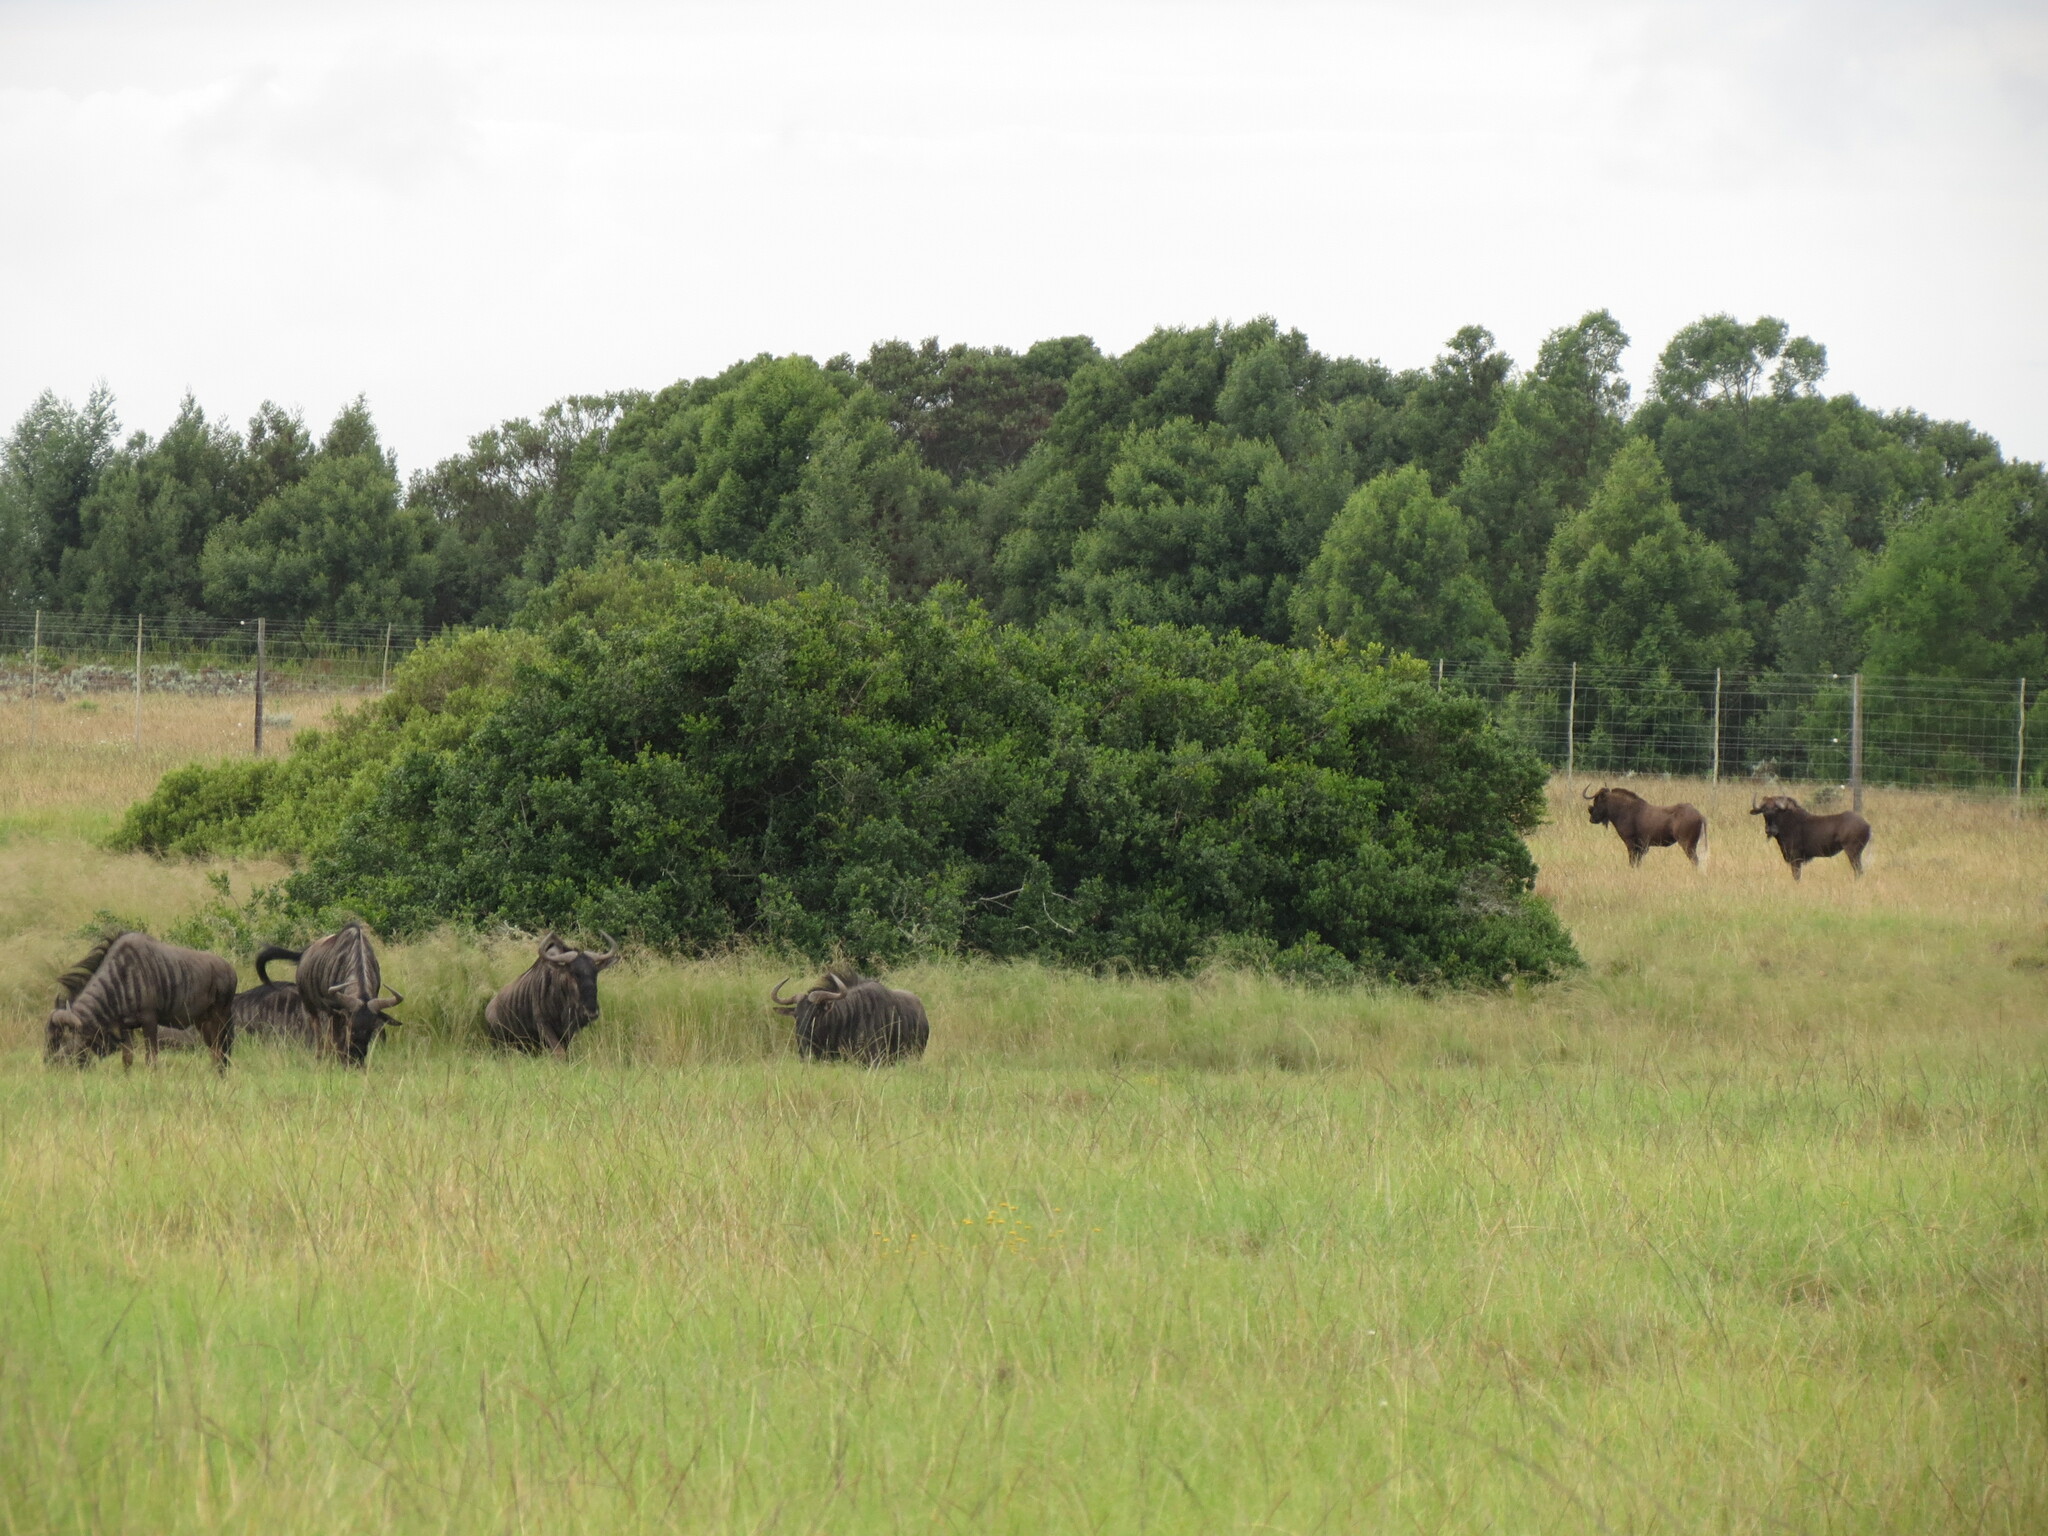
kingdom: Animalia
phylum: Chordata
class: Mammalia
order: Artiodactyla
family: Bovidae
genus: Connochaetes
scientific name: Connochaetes taurinus
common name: Blue wildebeest
